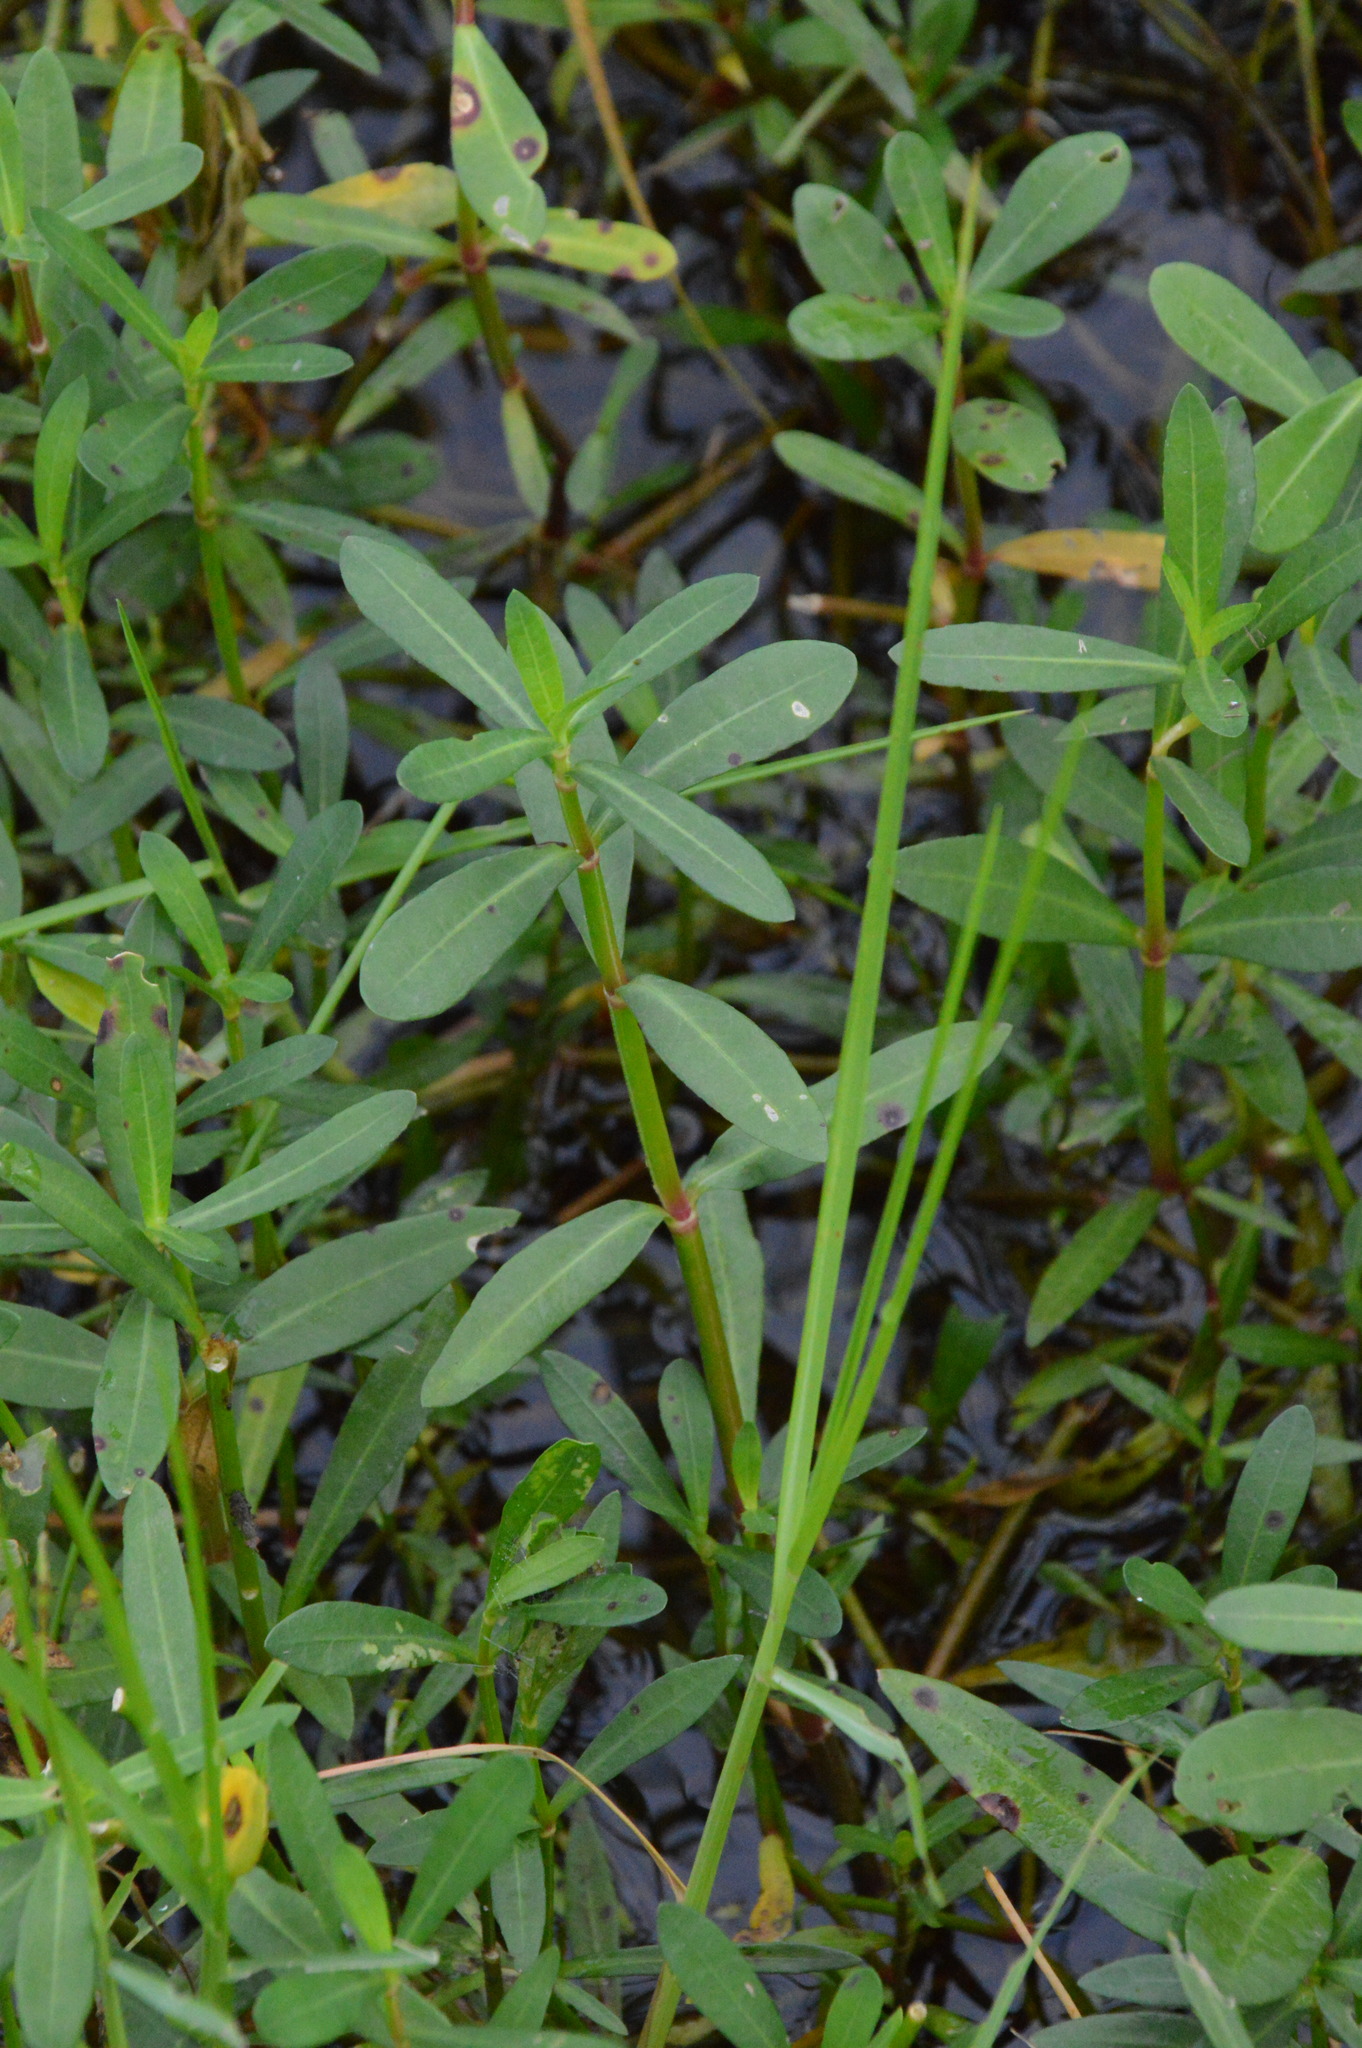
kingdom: Plantae
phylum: Tracheophyta
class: Magnoliopsida
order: Caryophyllales
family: Amaranthaceae
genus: Alternanthera
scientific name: Alternanthera philoxeroides
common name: Alligatorweed
